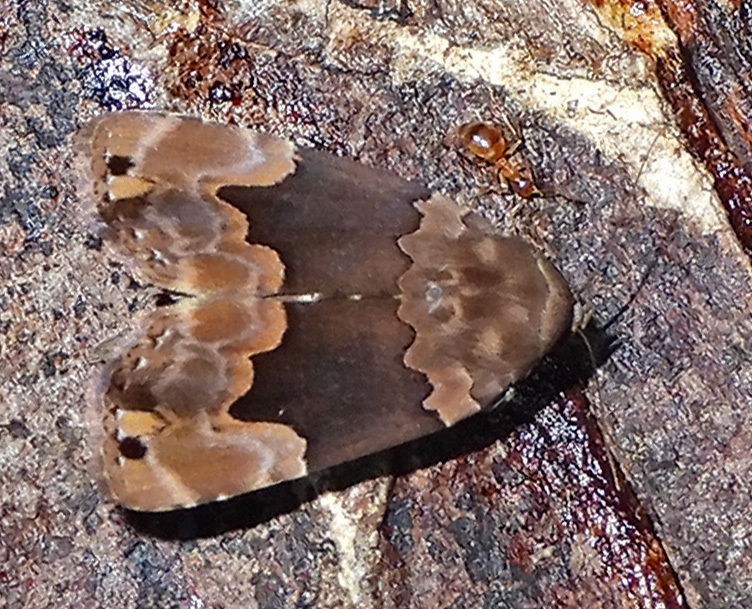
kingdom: Animalia
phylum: Arthropoda
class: Insecta
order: Lepidoptera
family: Erebidae
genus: Dinumma
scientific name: Dinumma deponens
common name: Purplish moth
